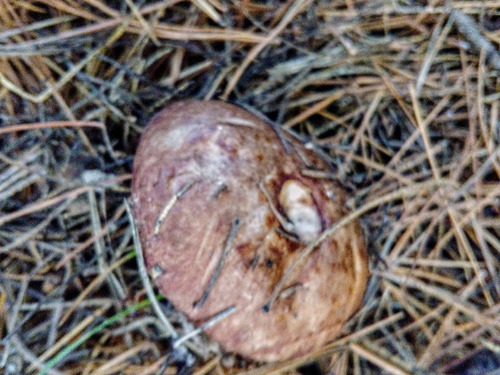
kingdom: Fungi
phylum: Basidiomycota
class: Agaricomycetes
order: Boletales
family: Suillaceae
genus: Suillus
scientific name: Suillus placidus
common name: Slippery white bolete
